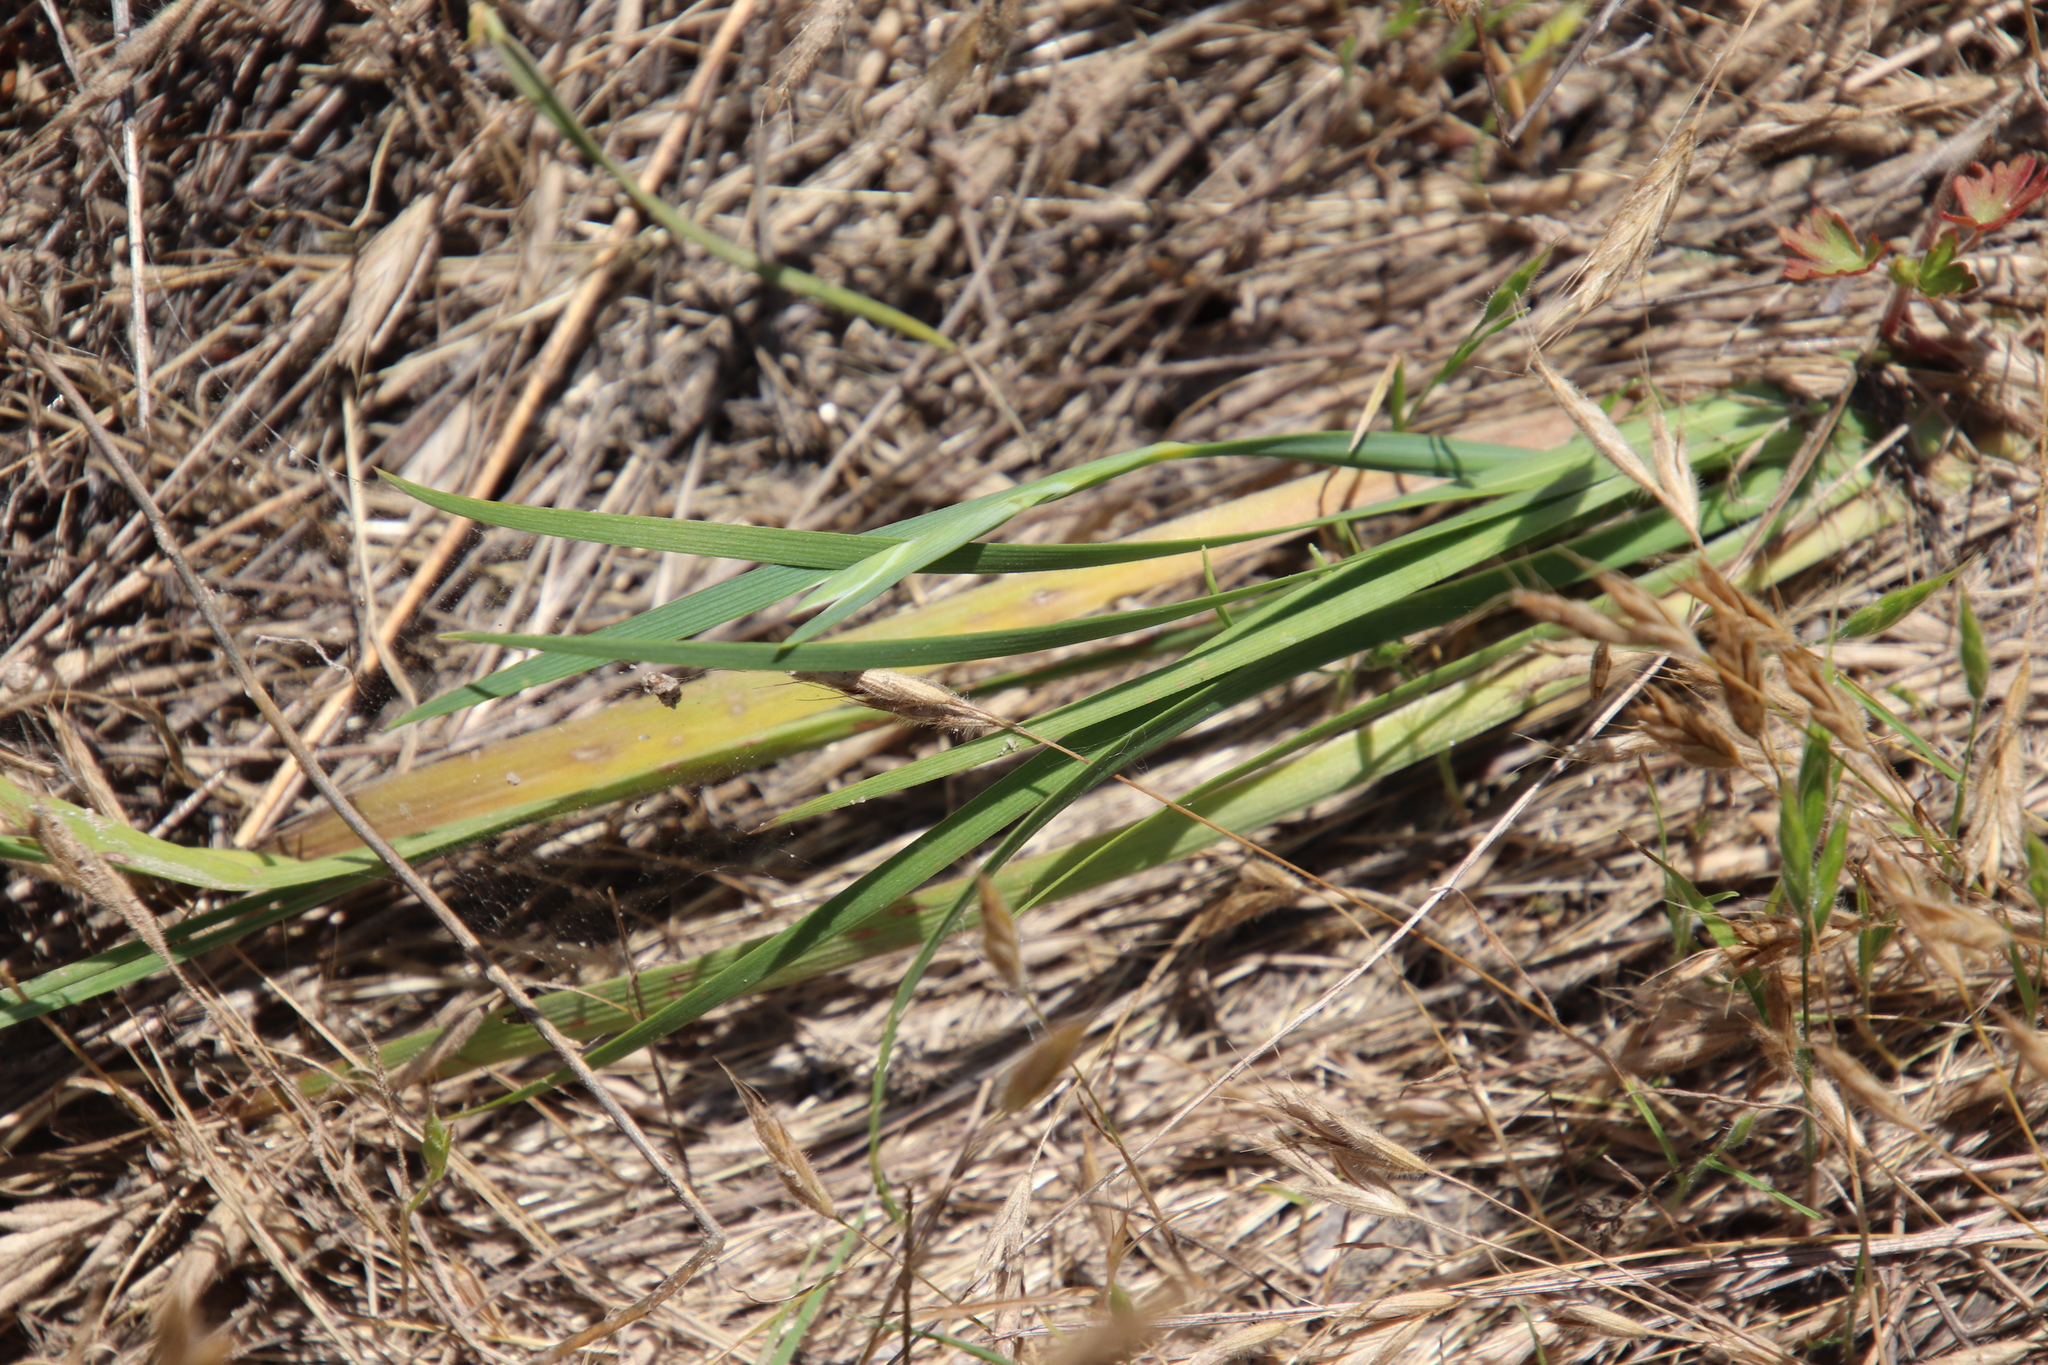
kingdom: Plantae
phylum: Tracheophyta
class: Liliopsida
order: Asparagales
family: Iridaceae
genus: Sisyrinchium
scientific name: Sisyrinchium bellum
